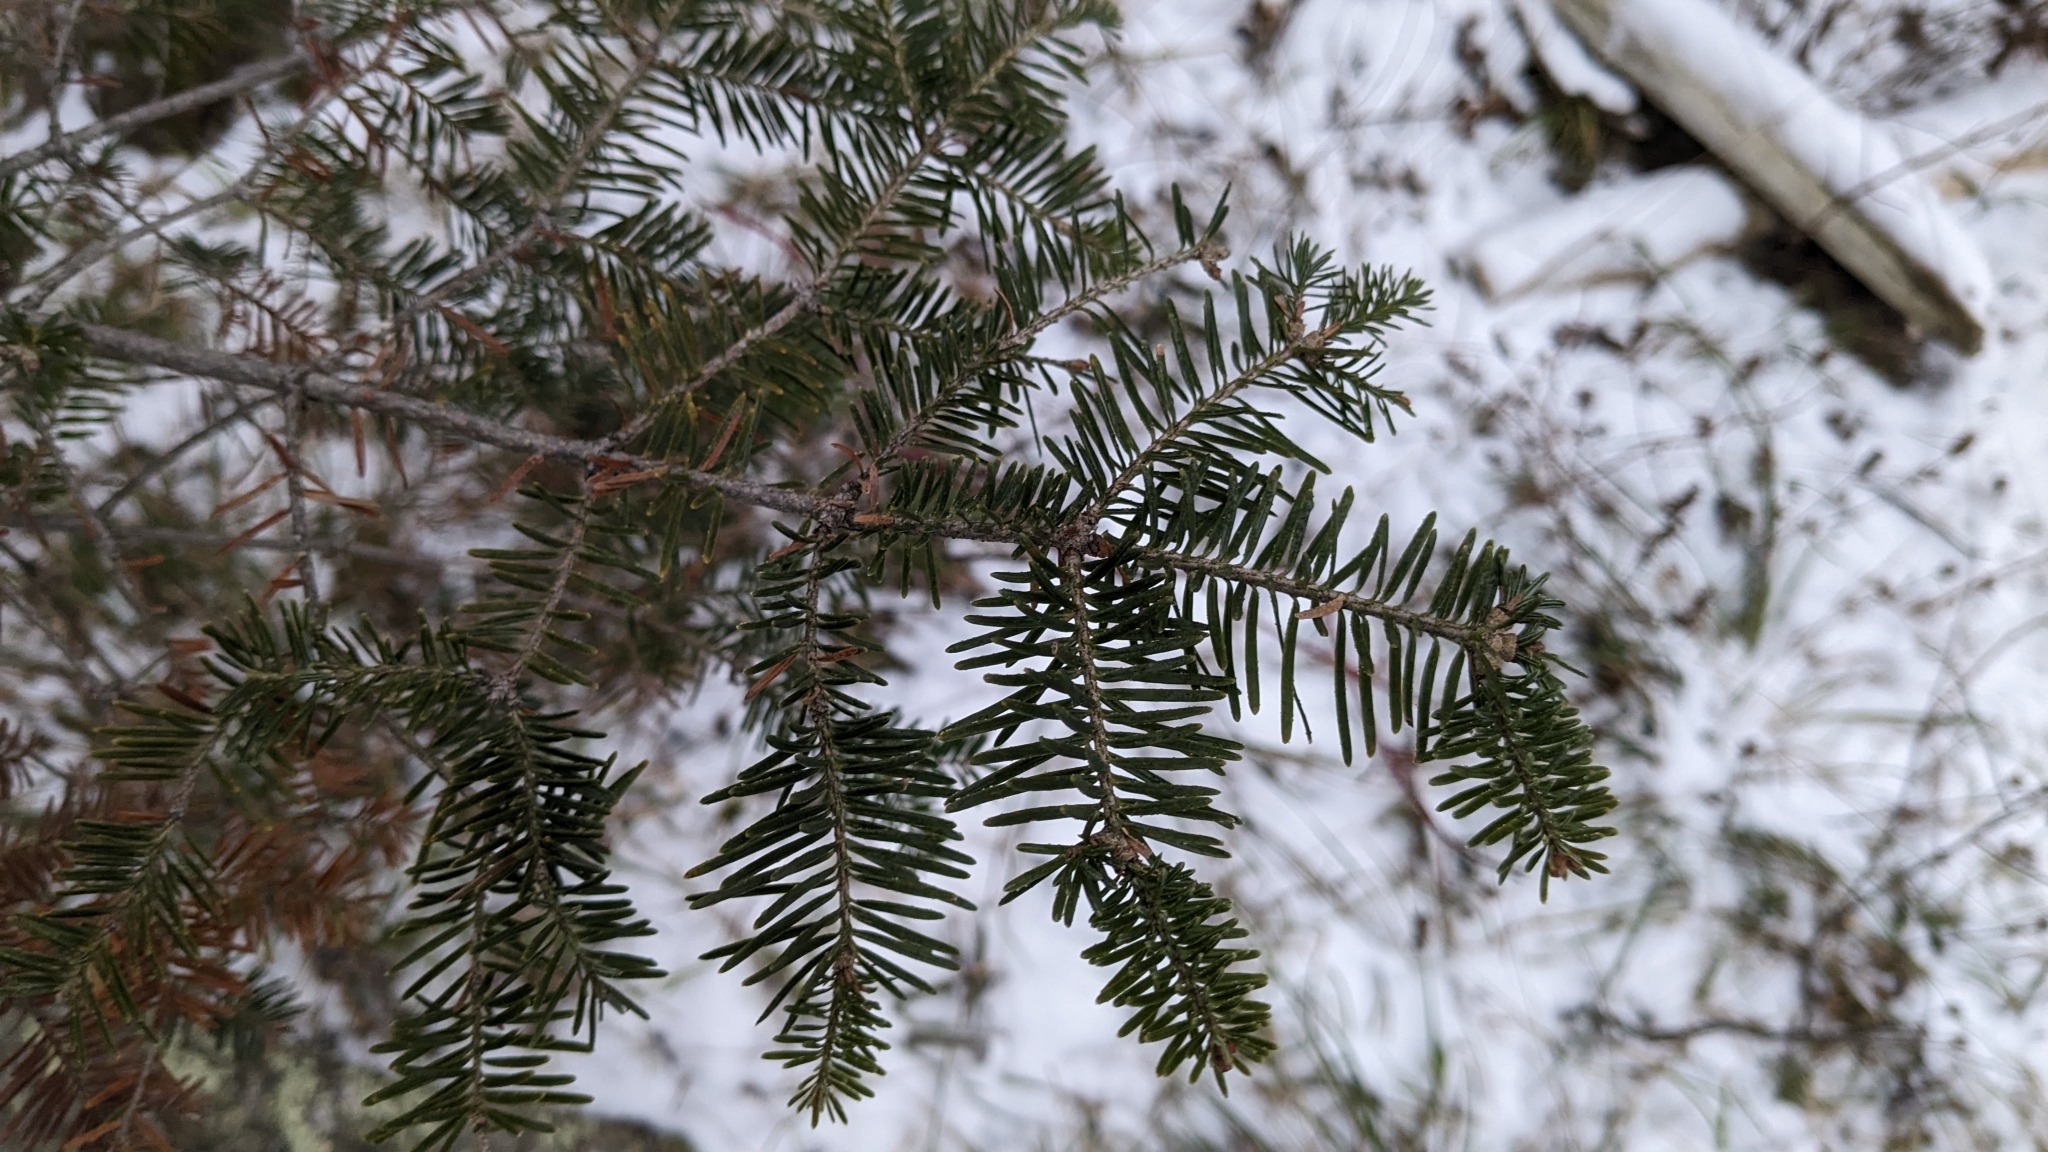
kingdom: Plantae
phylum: Tracheophyta
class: Pinopsida
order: Pinales
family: Pinaceae
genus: Abies
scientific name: Abies balsamea
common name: Balsam fir
